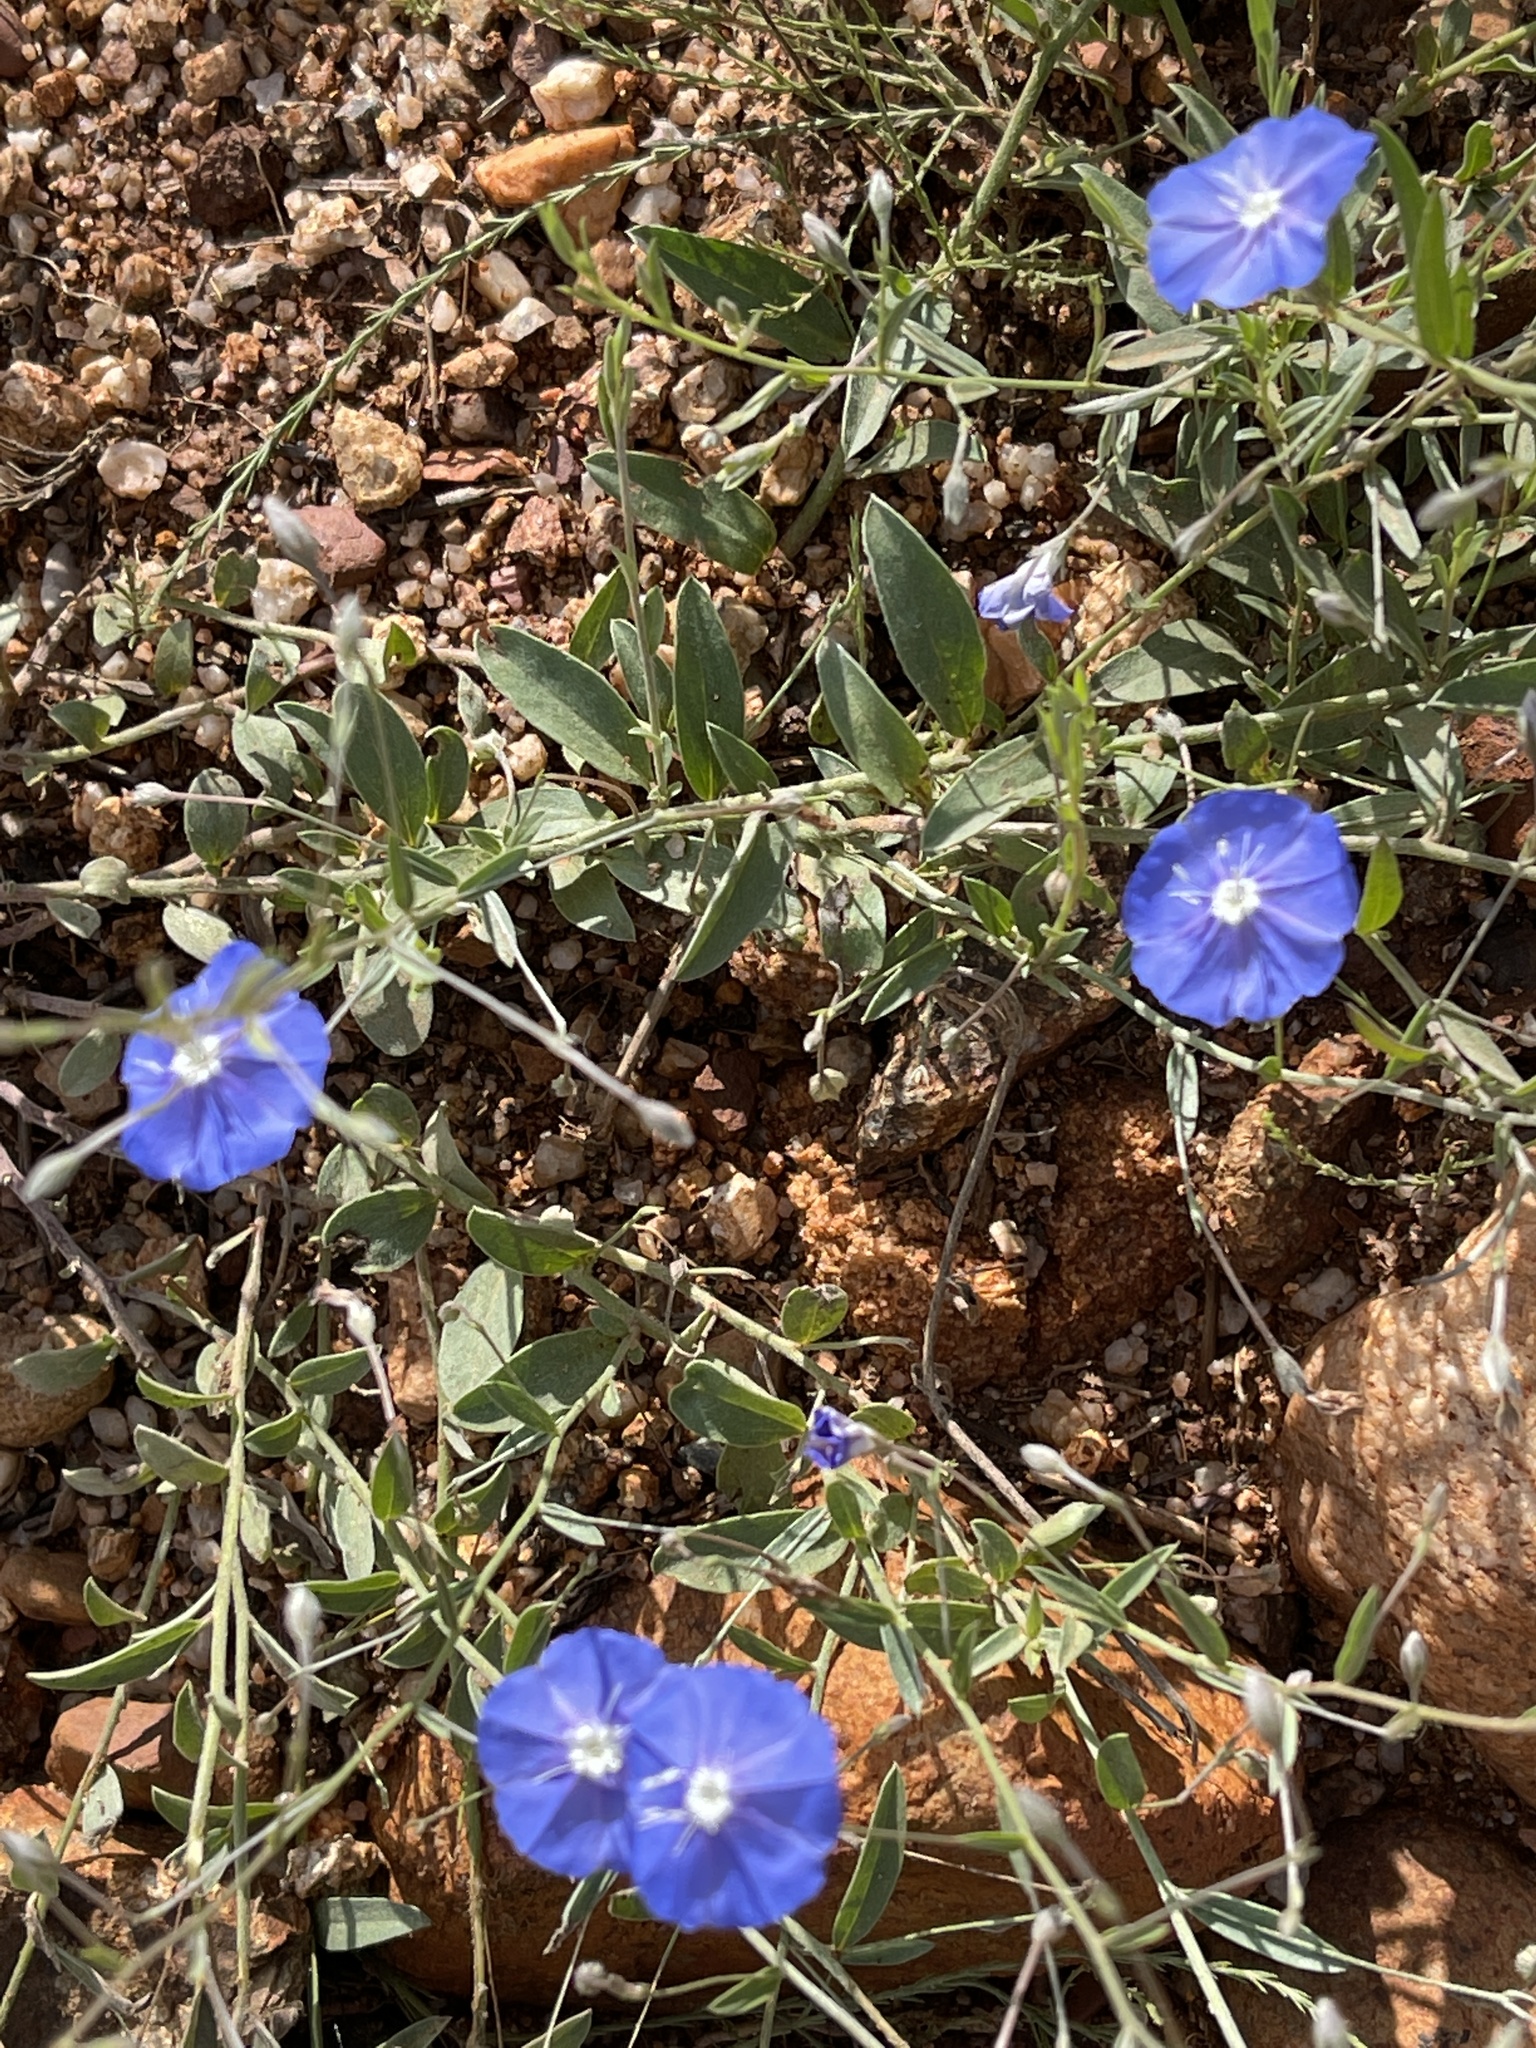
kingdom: Plantae
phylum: Tracheophyta
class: Magnoliopsida
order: Solanales
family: Convolvulaceae
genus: Evolvulus
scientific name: Evolvulus alsinoides
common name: Slender dwarf morning-glory
